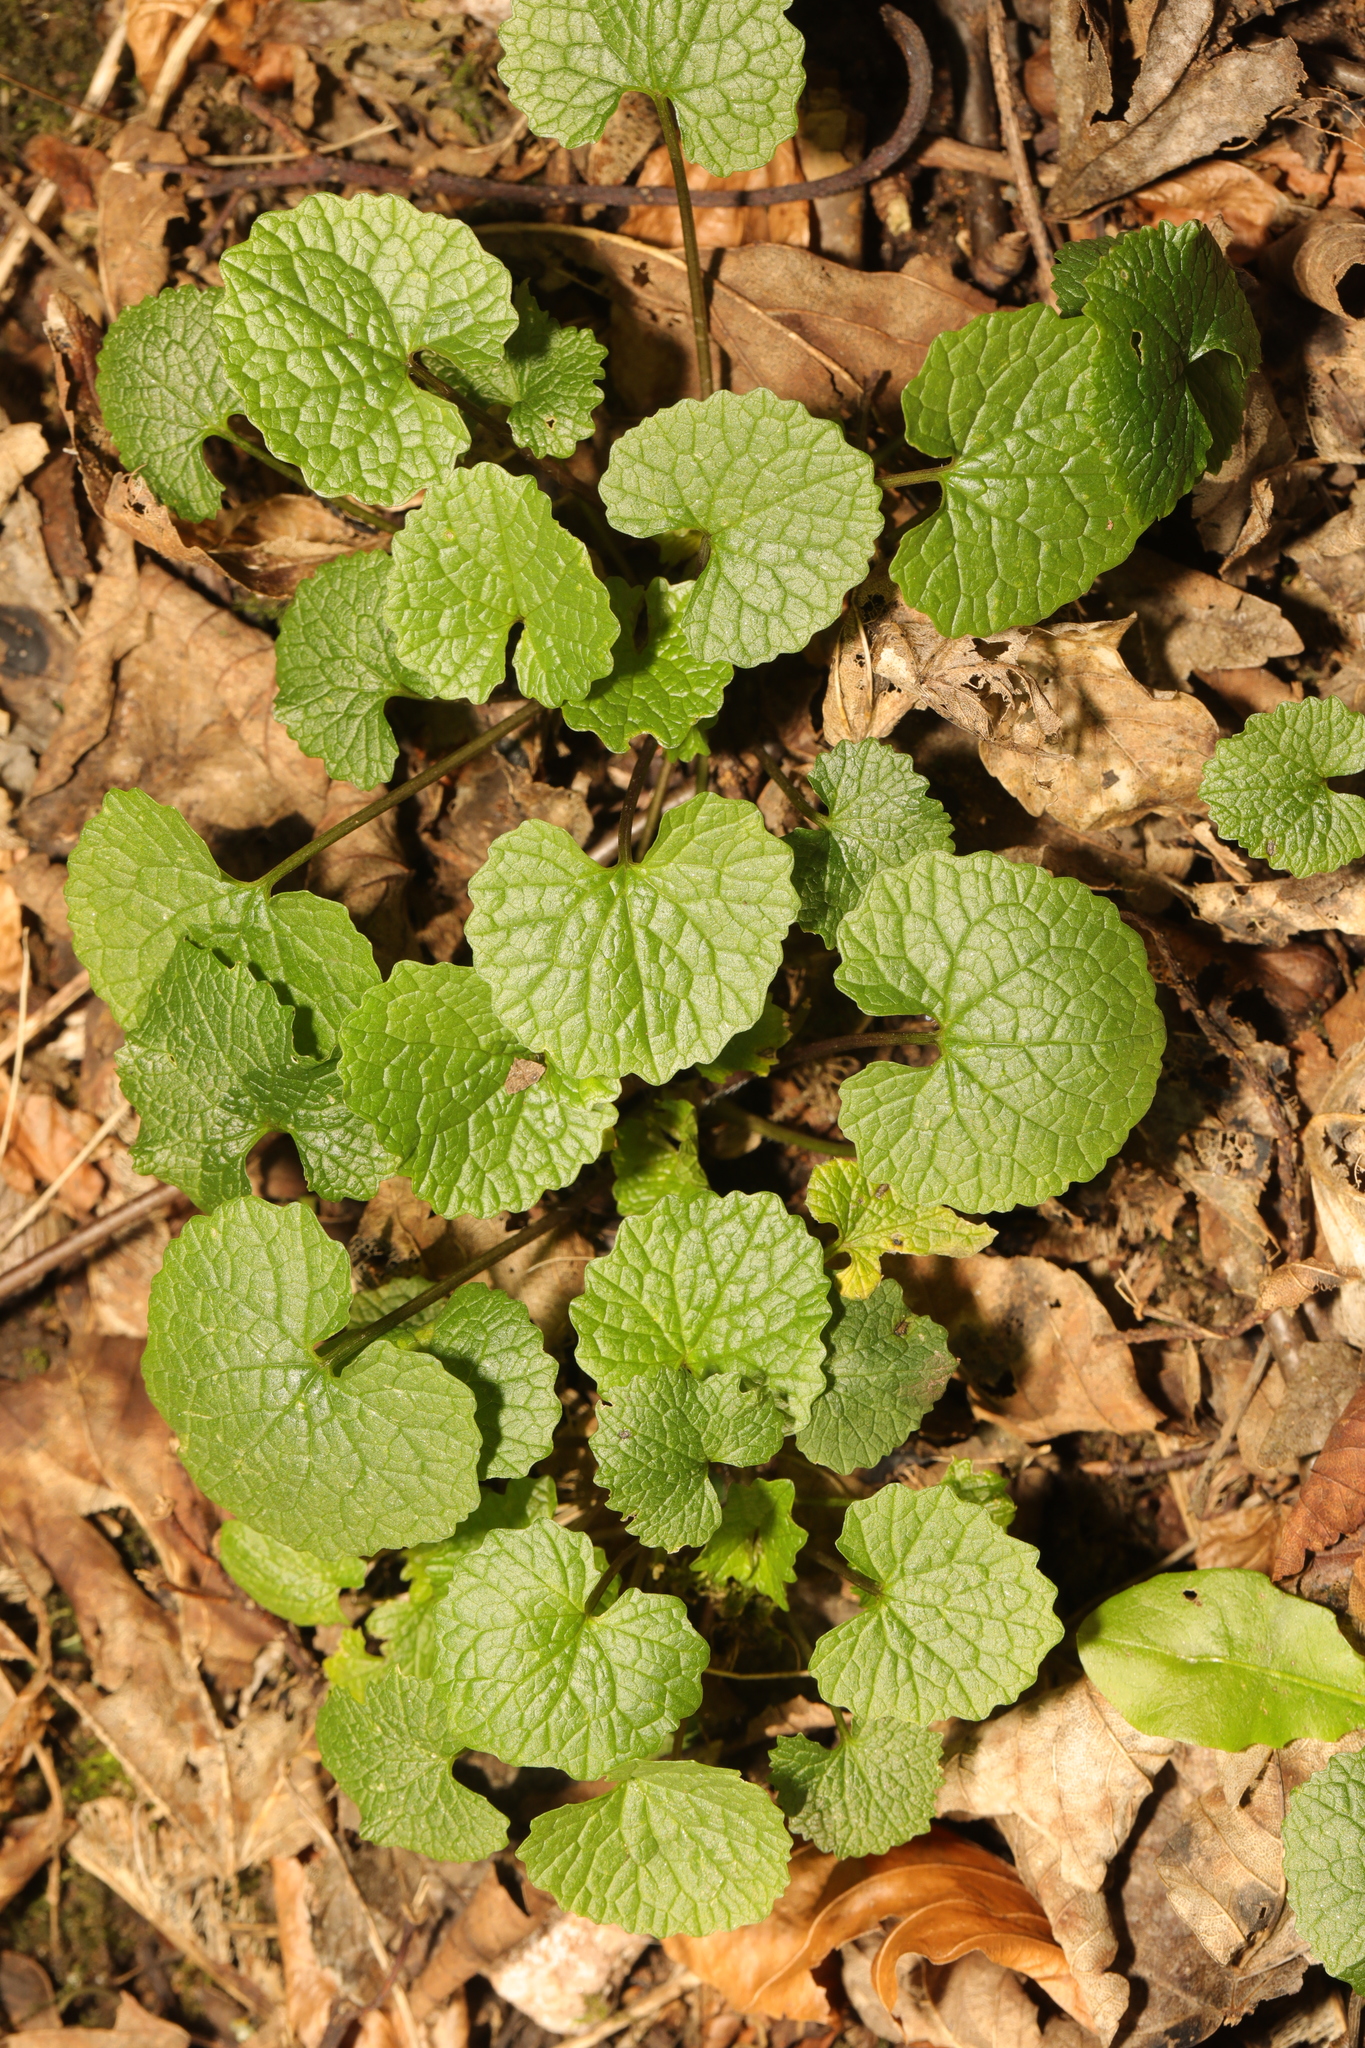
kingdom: Plantae
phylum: Tracheophyta
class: Magnoliopsida
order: Brassicales
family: Brassicaceae
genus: Alliaria
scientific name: Alliaria petiolata
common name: Garlic mustard
